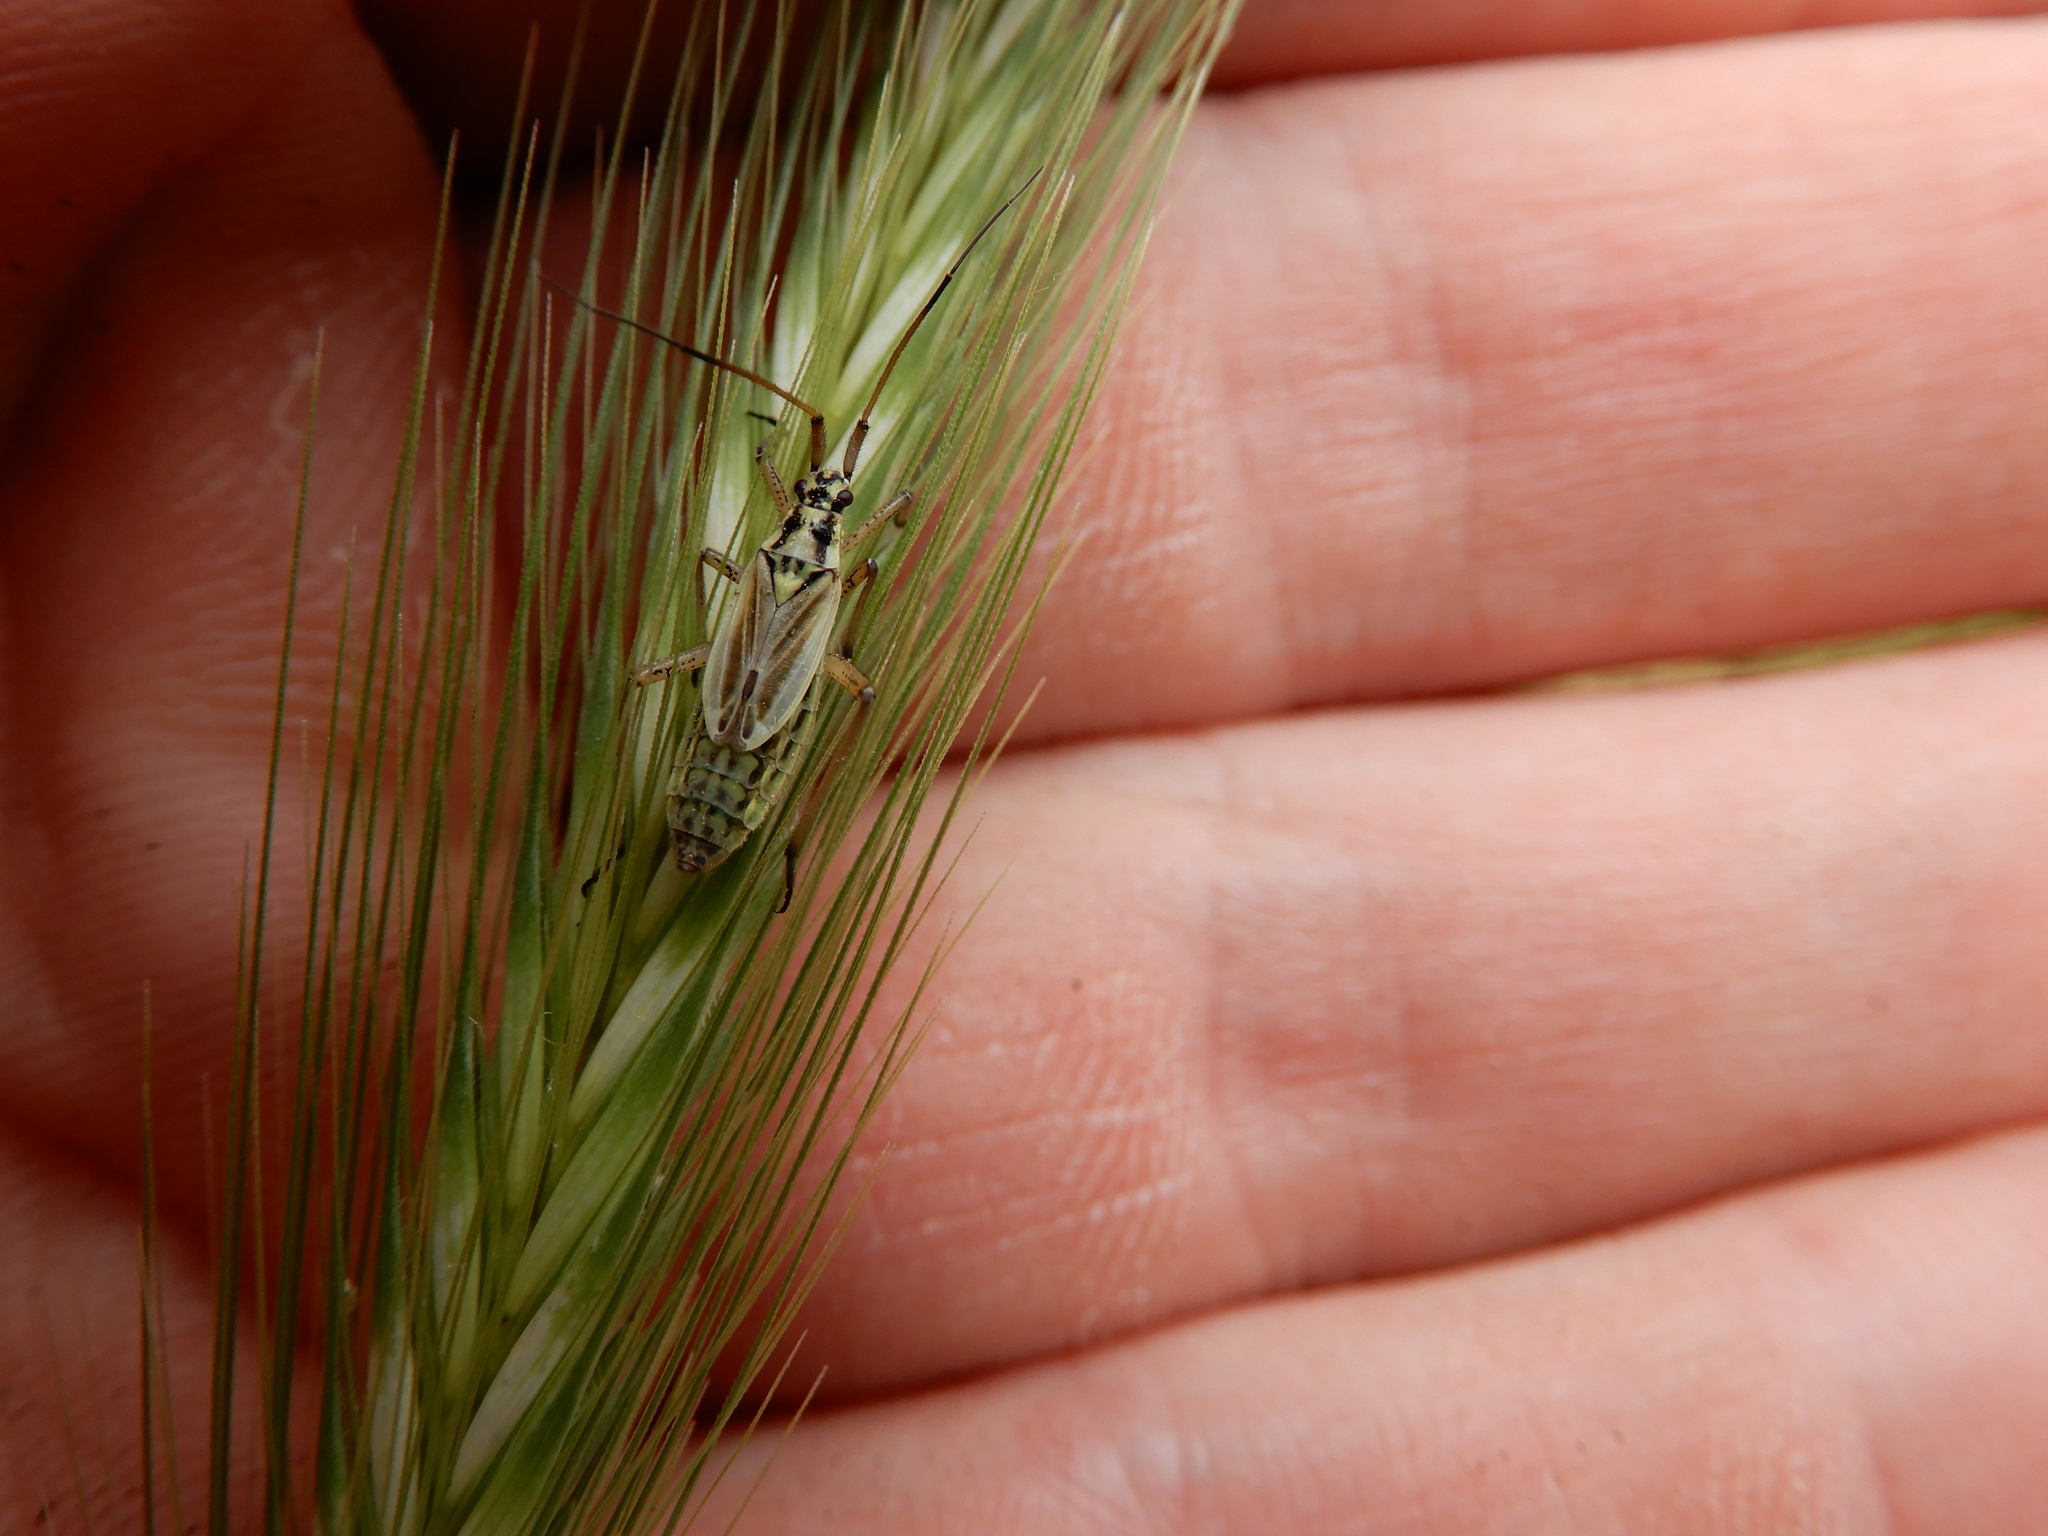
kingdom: Animalia
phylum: Arthropoda
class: Insecta
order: Hemiptera
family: Miridae
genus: Leptopterna
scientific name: Leptopterna dolabrata
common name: Meadow plant bug
